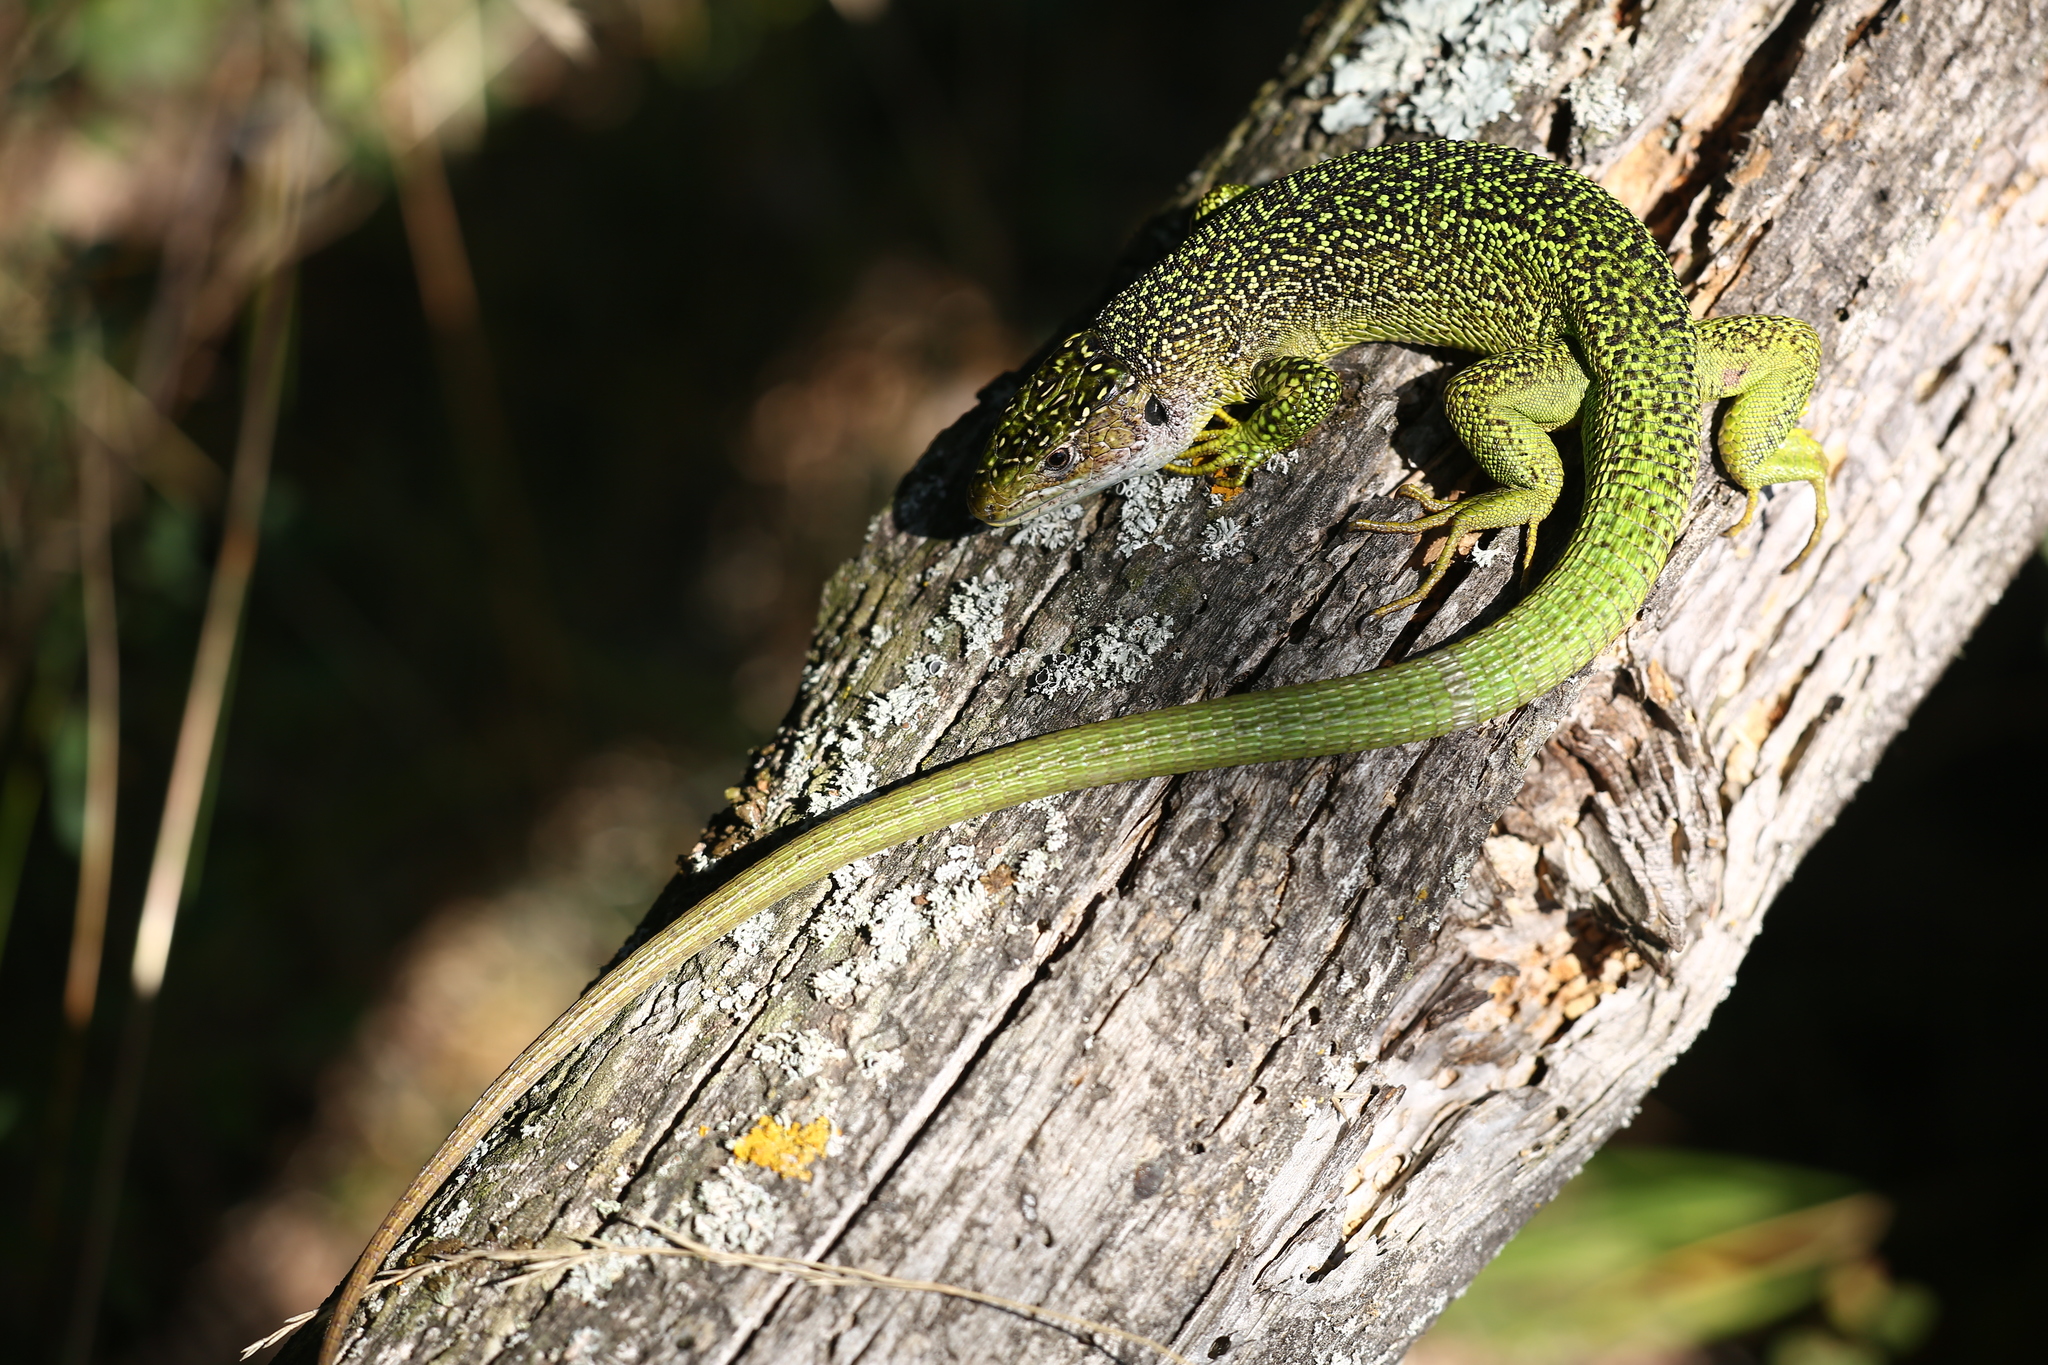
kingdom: Animalia
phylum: Chordata
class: Squamata
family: Lacertidae
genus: Lacerta
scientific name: Lacerta bilineata
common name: Western green lizard
